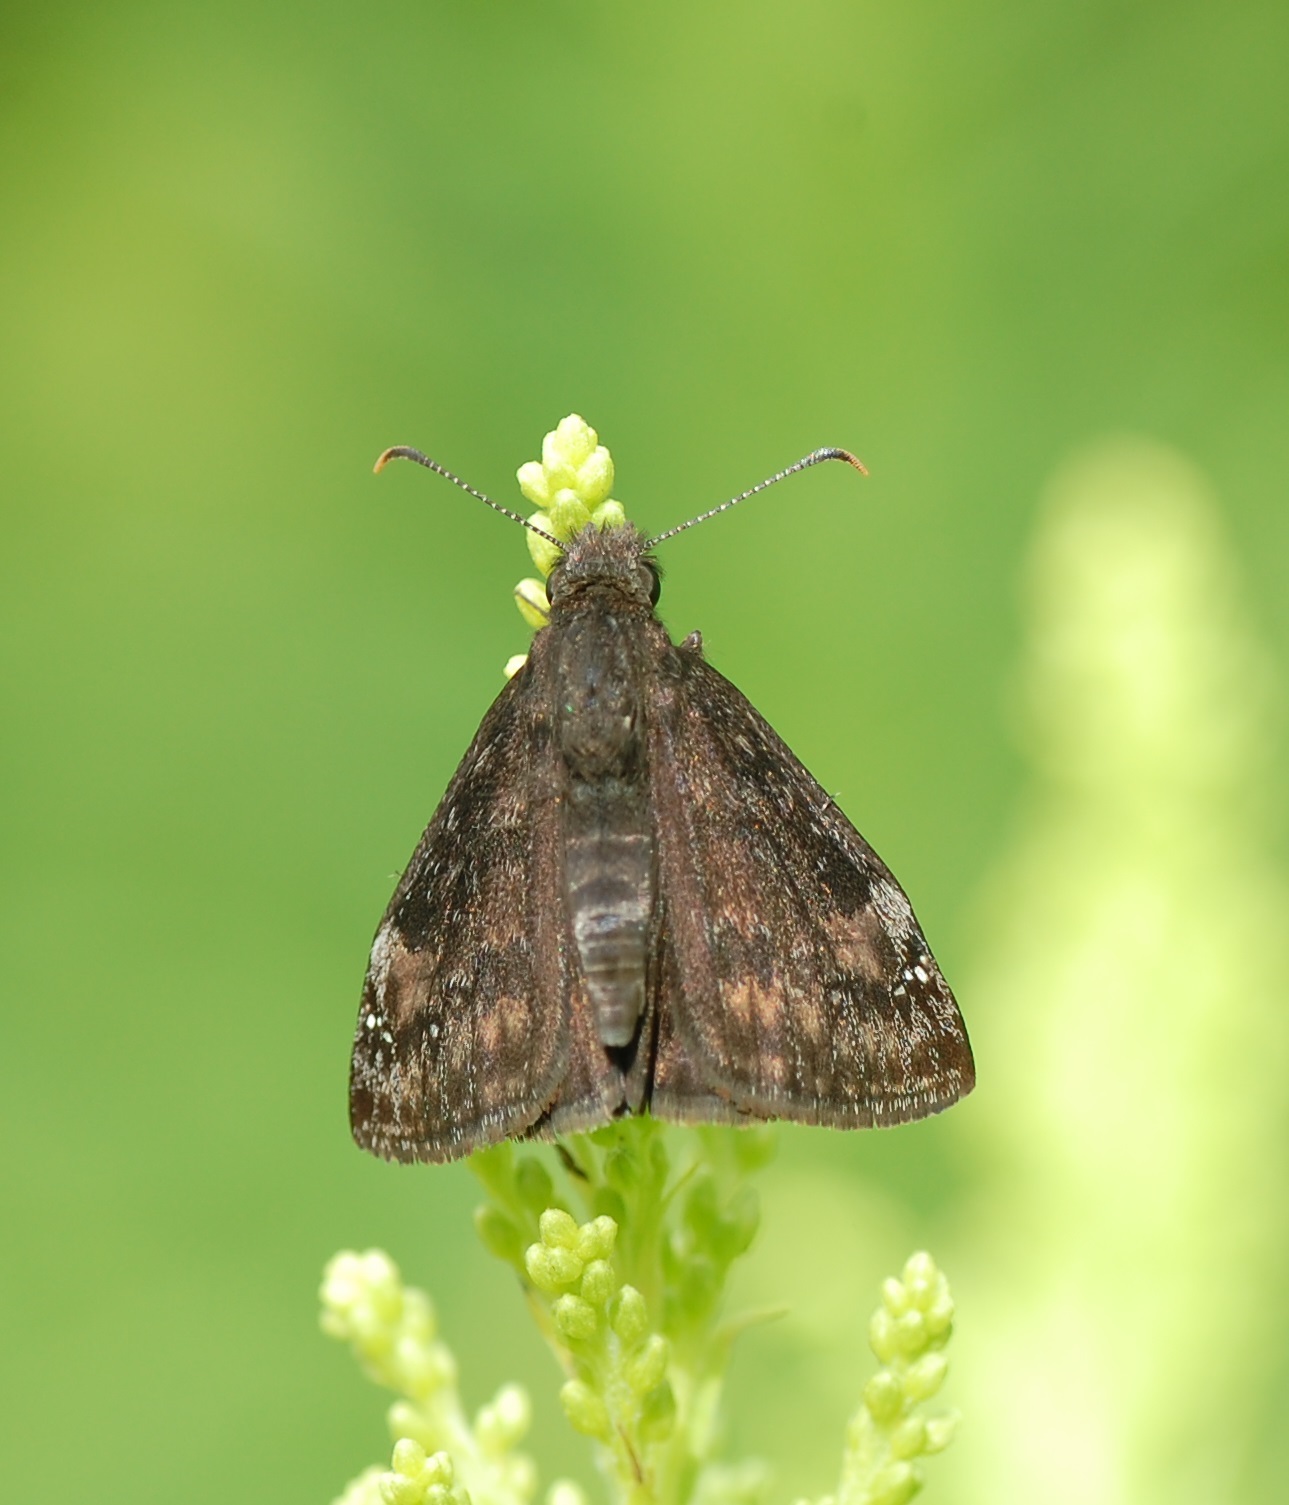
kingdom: Animalia
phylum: Arthropoda
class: Insecta
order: Lepidoptera
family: Hesperiidae
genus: Erynnis
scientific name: Erynnis baptisiae
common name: Wild indigo duskywing
